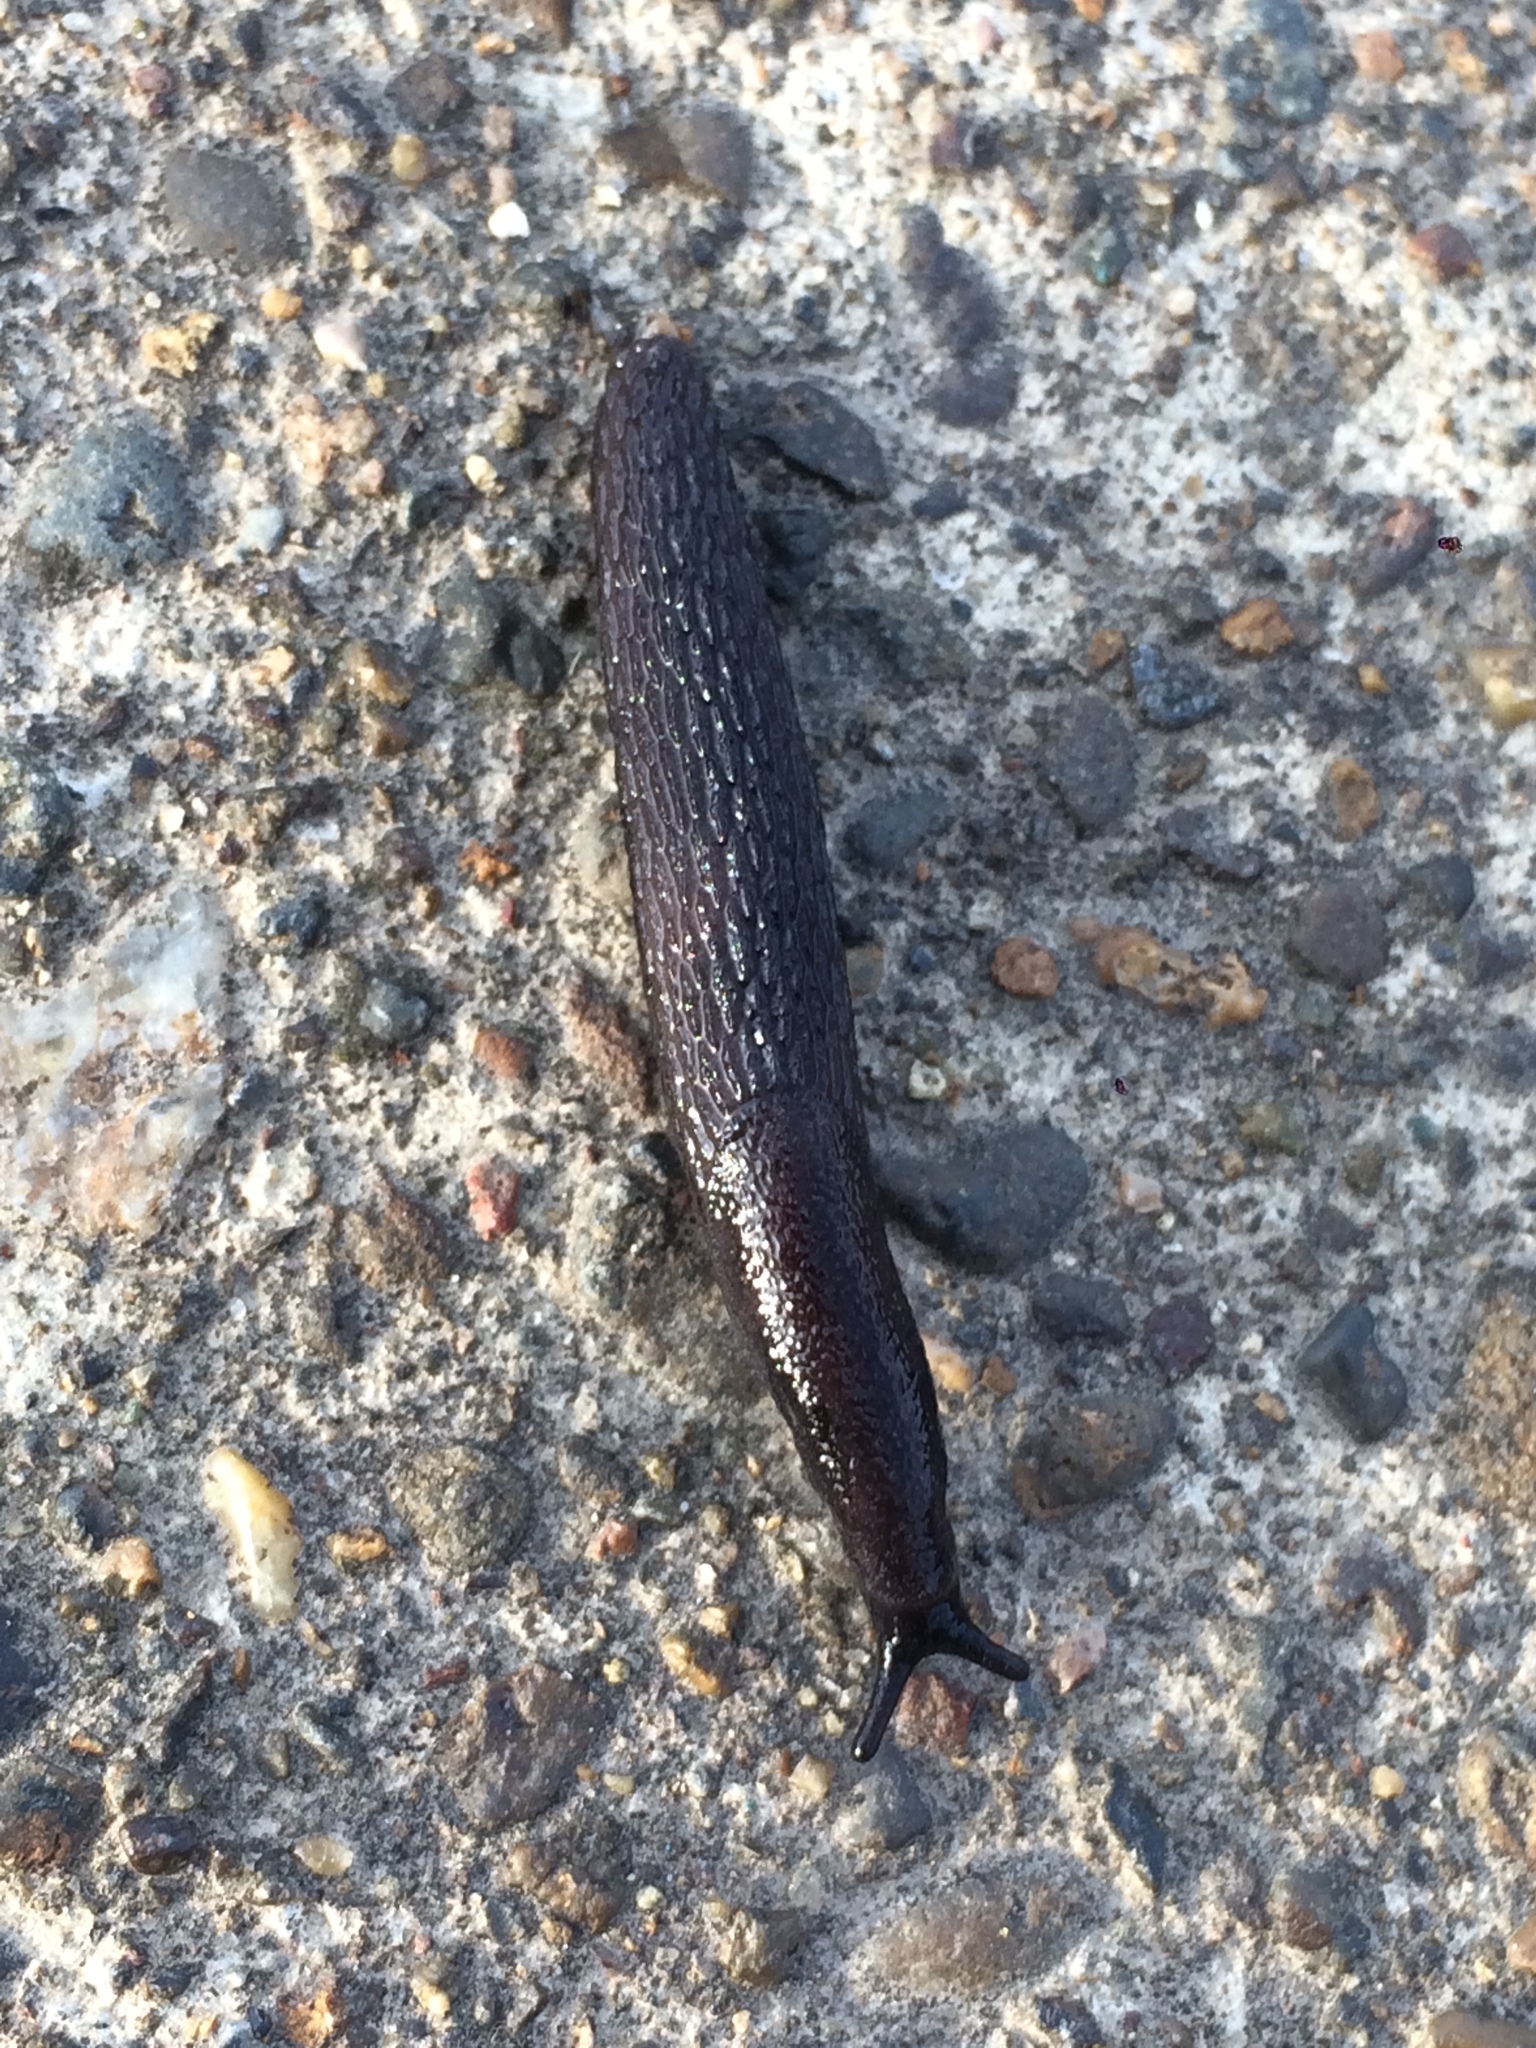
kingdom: Animalia
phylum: Mollusca
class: Gastropoda
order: Stylommatophora
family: Arionidae
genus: Arion
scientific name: Arion
